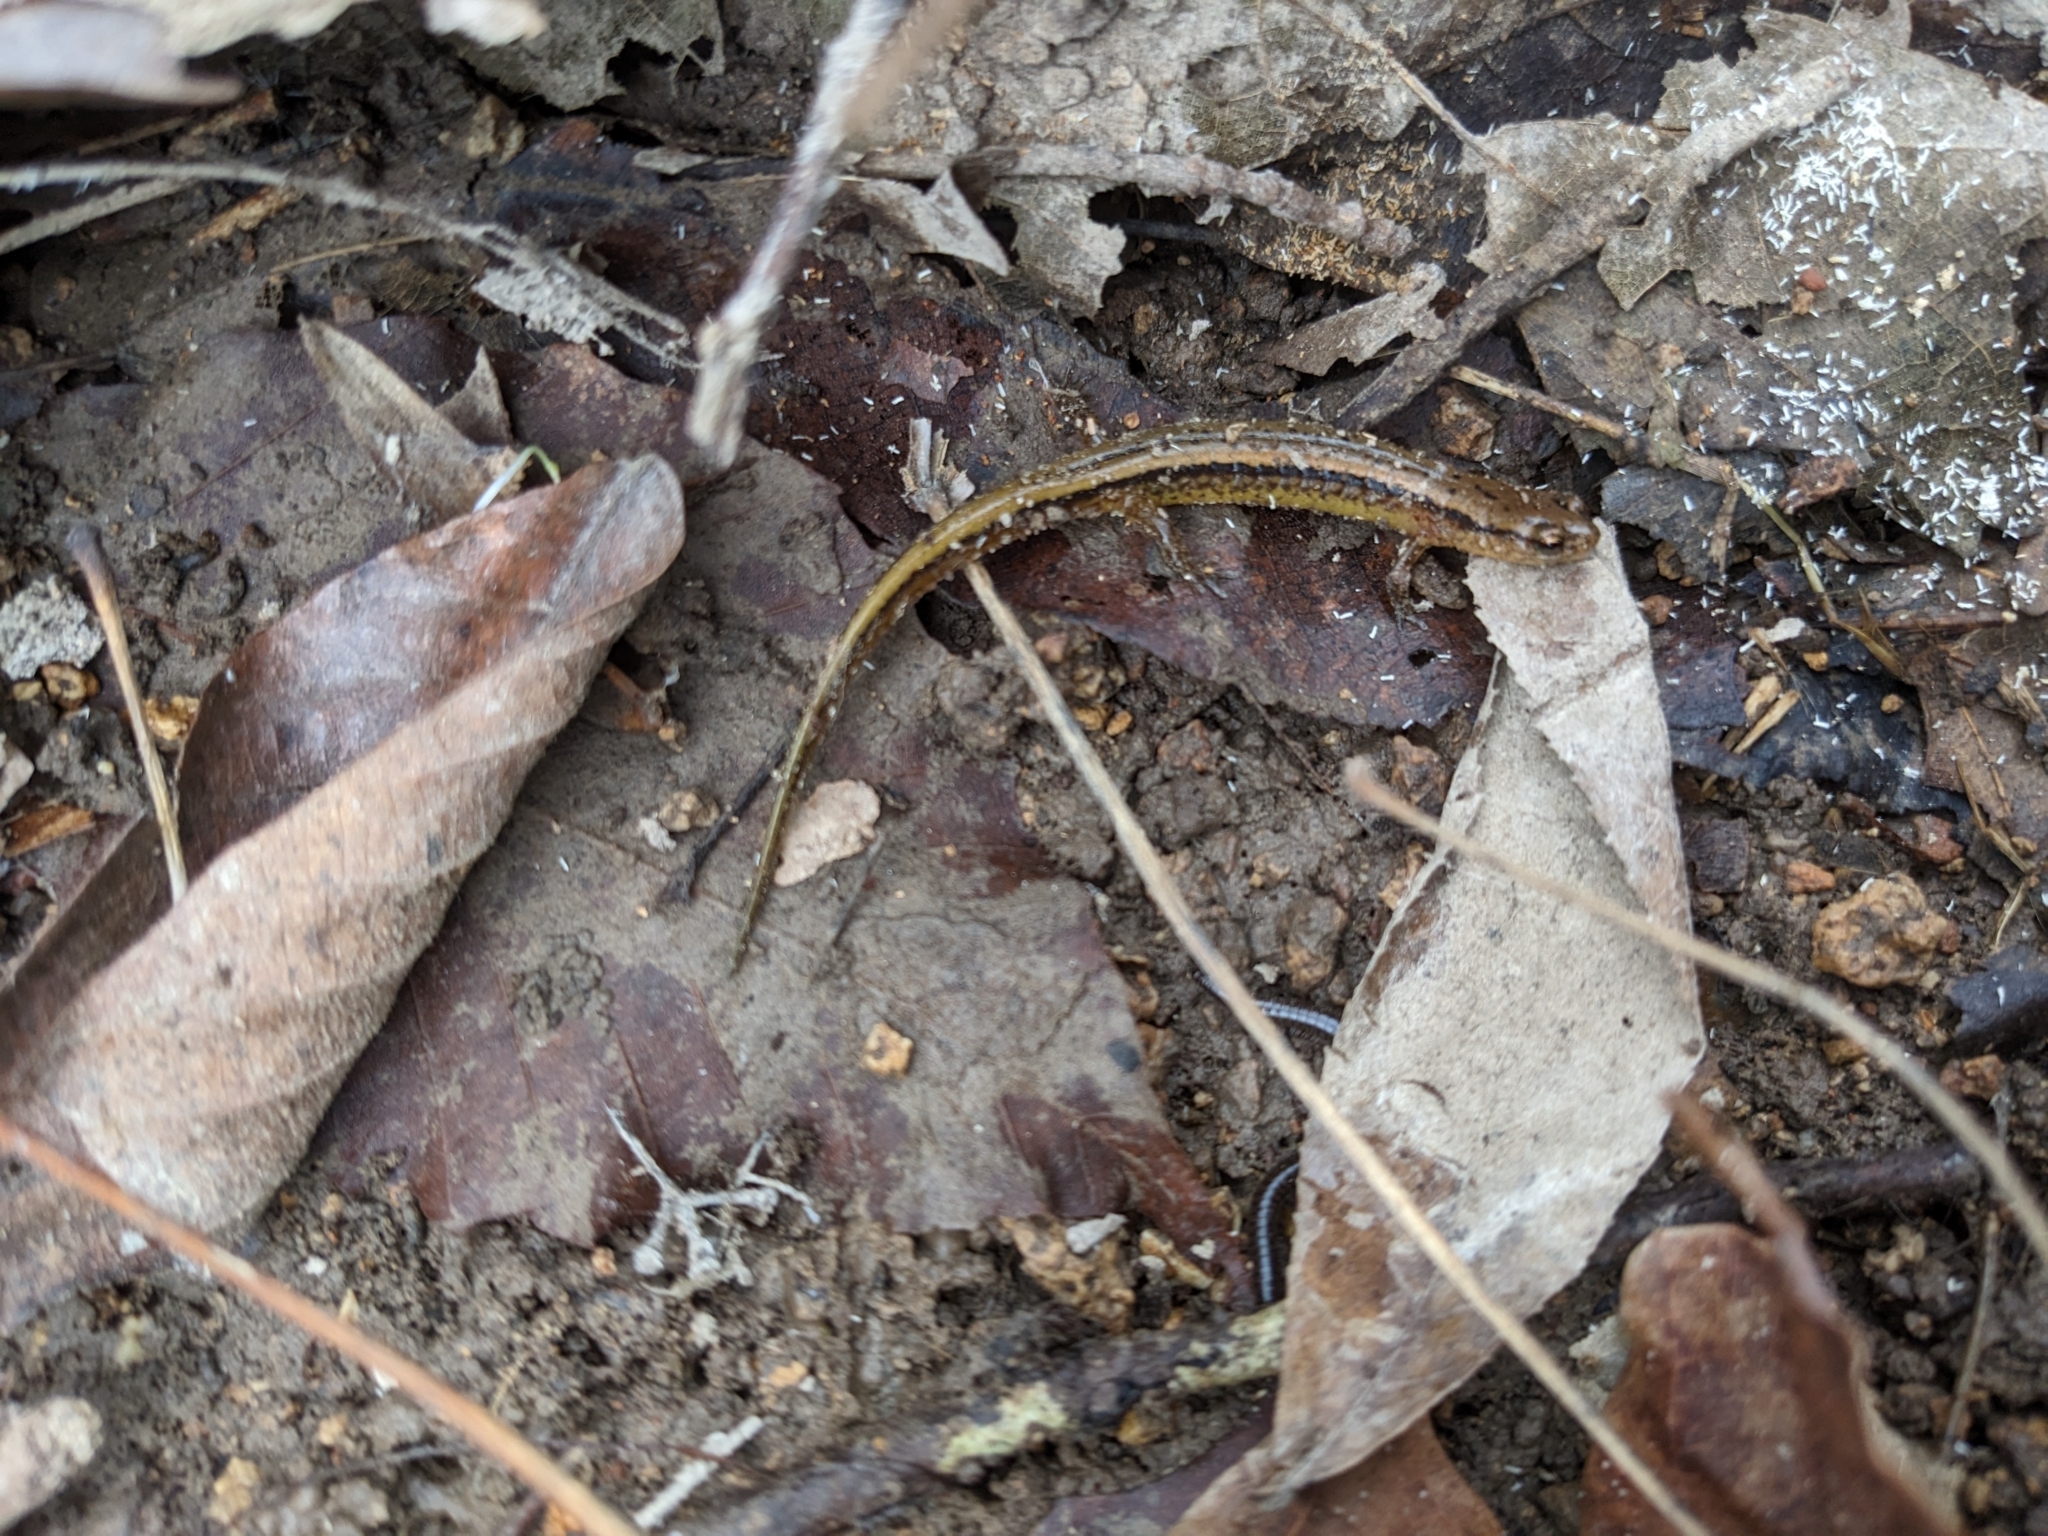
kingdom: Animalia
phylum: Chordata
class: Amphibia
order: Caudata
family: Plethodontidae
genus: Eurycea
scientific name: Eurycea cirrigera
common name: Southern two-lined salamander
